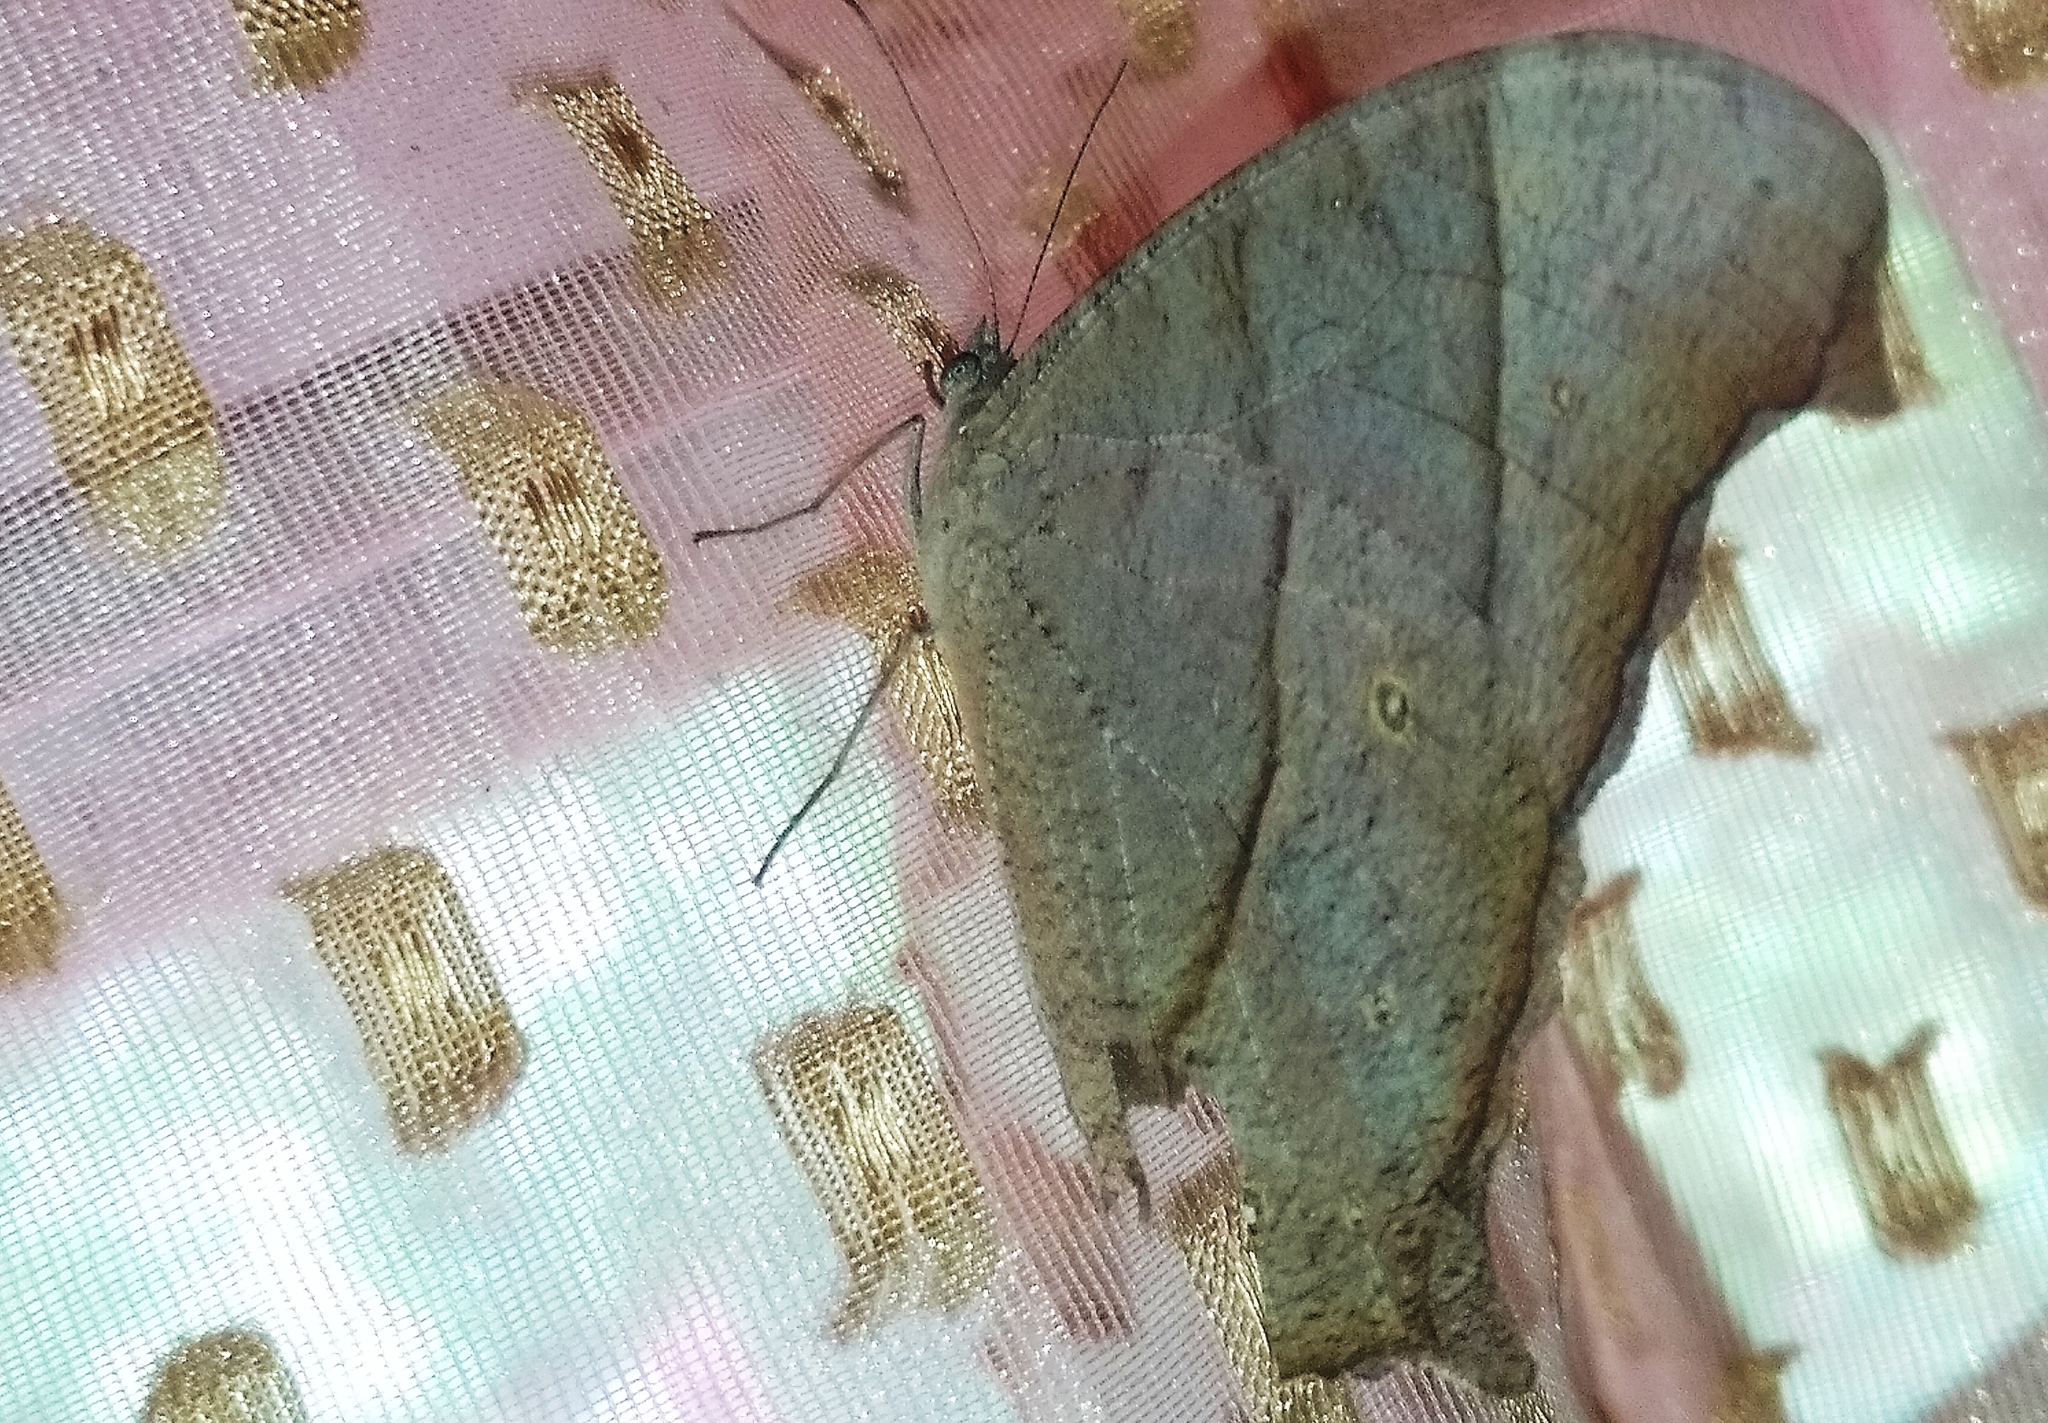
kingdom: Animalia
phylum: Arthropoda
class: Insecta
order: Lepidoptera
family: Nymphalidae
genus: Melanitis
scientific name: Melanitis leda
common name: Twilight brown
